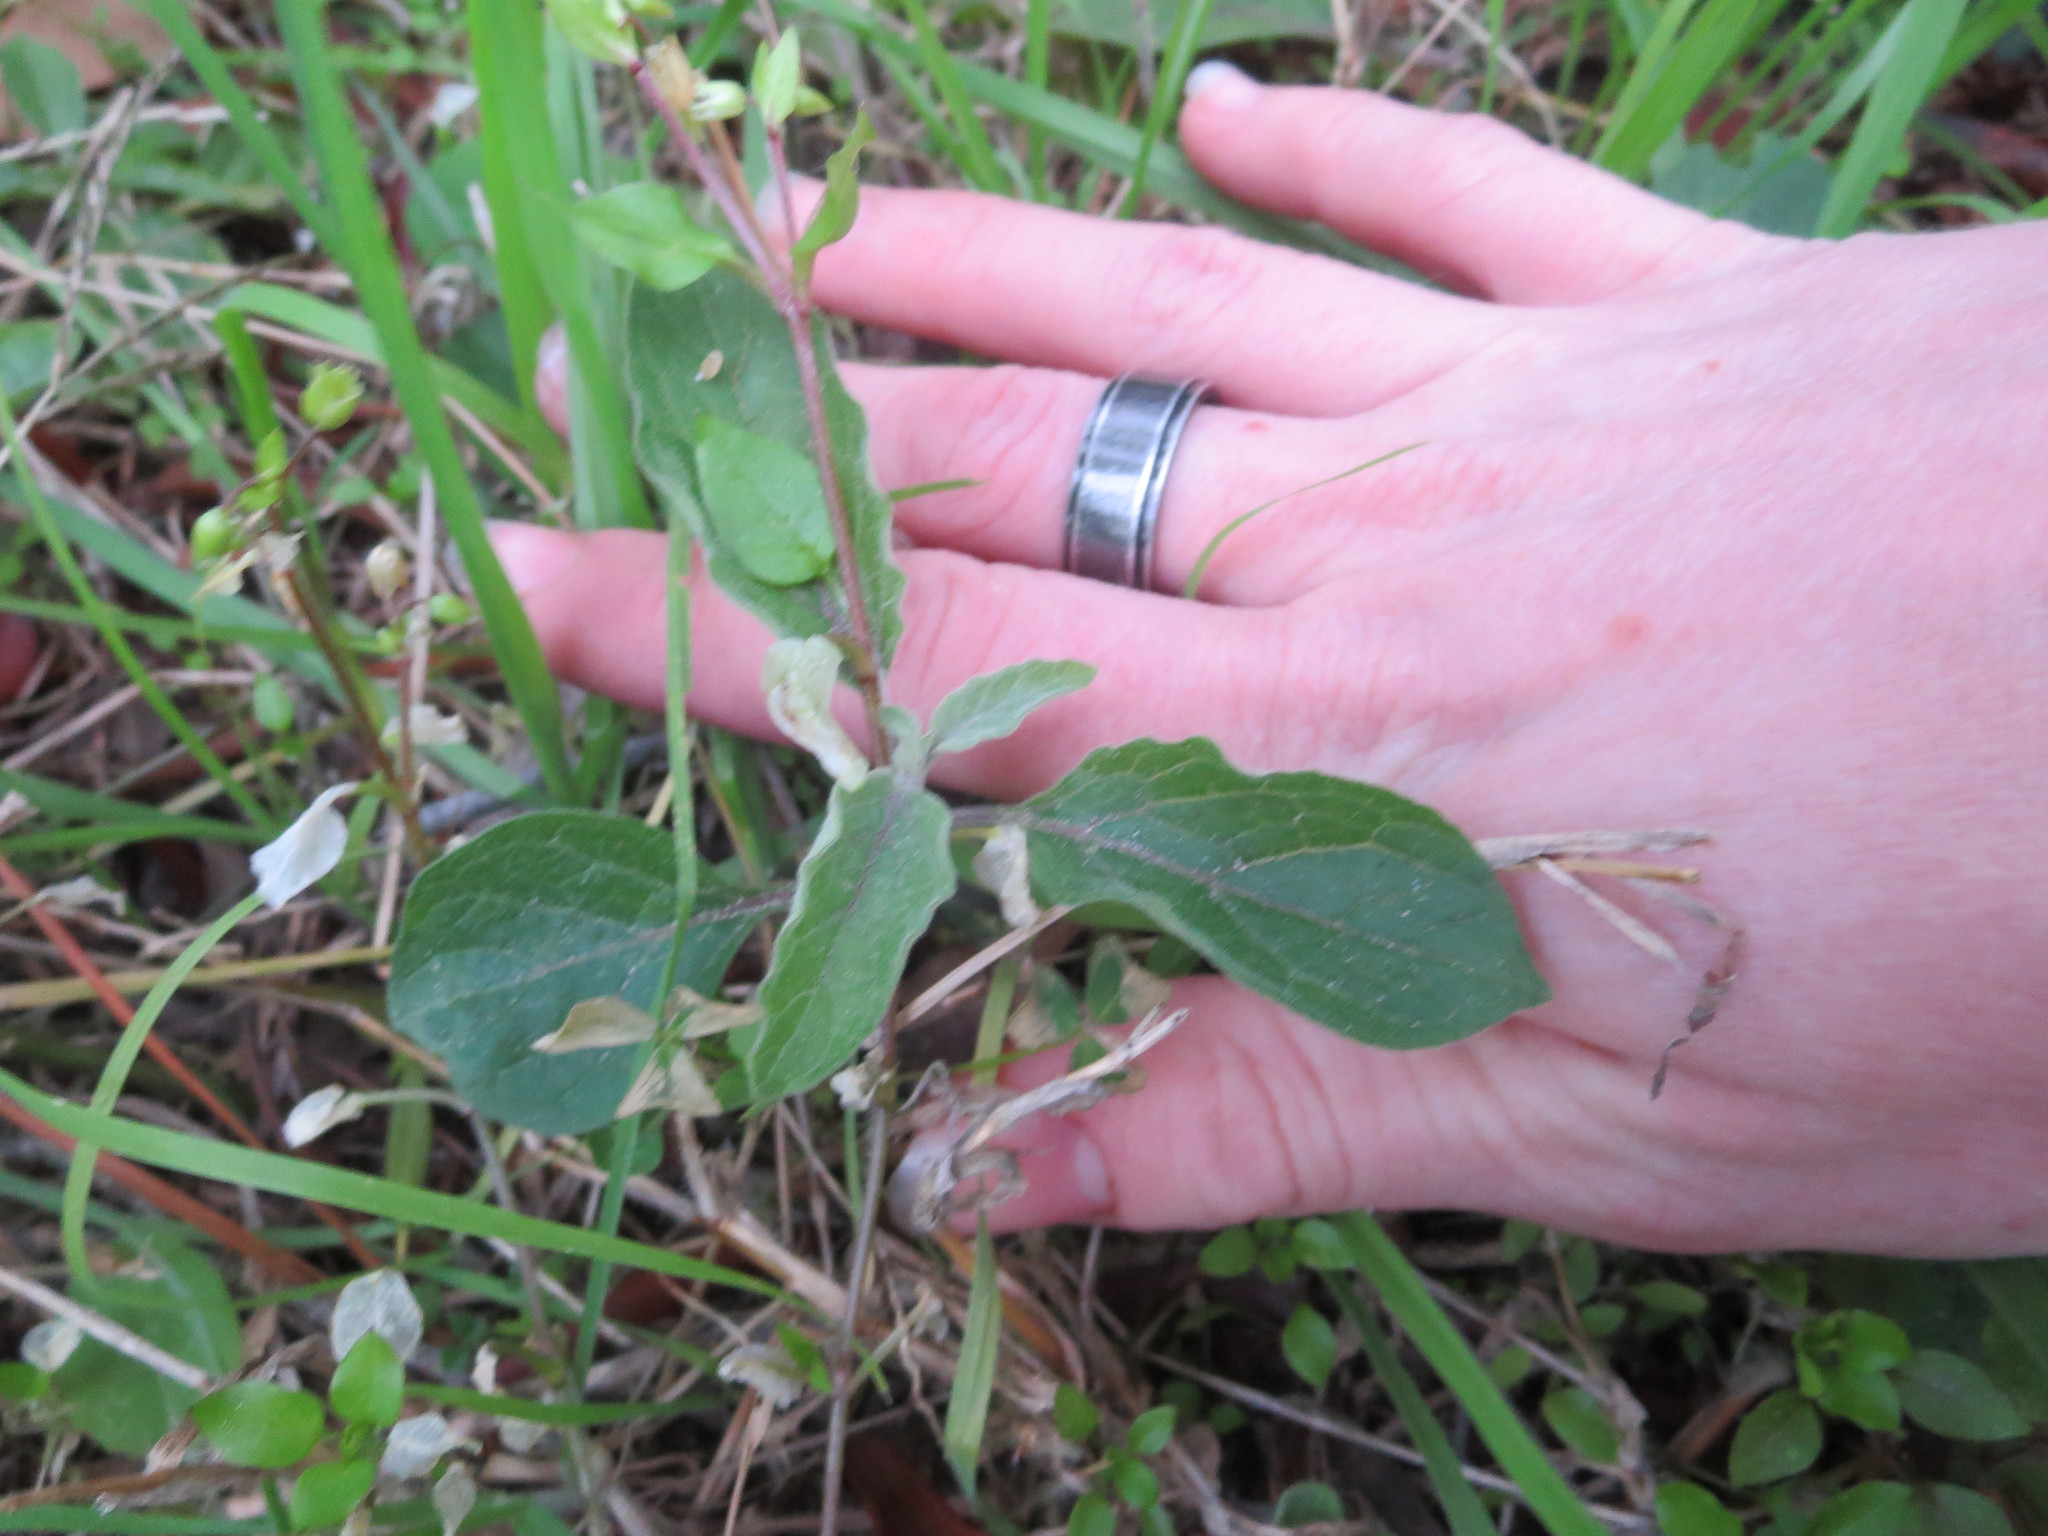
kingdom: Plantae
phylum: Tracheophyta
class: Magnoliopsida
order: Solanales
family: Solanaceae
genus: Physalis
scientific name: Physalis walteri
